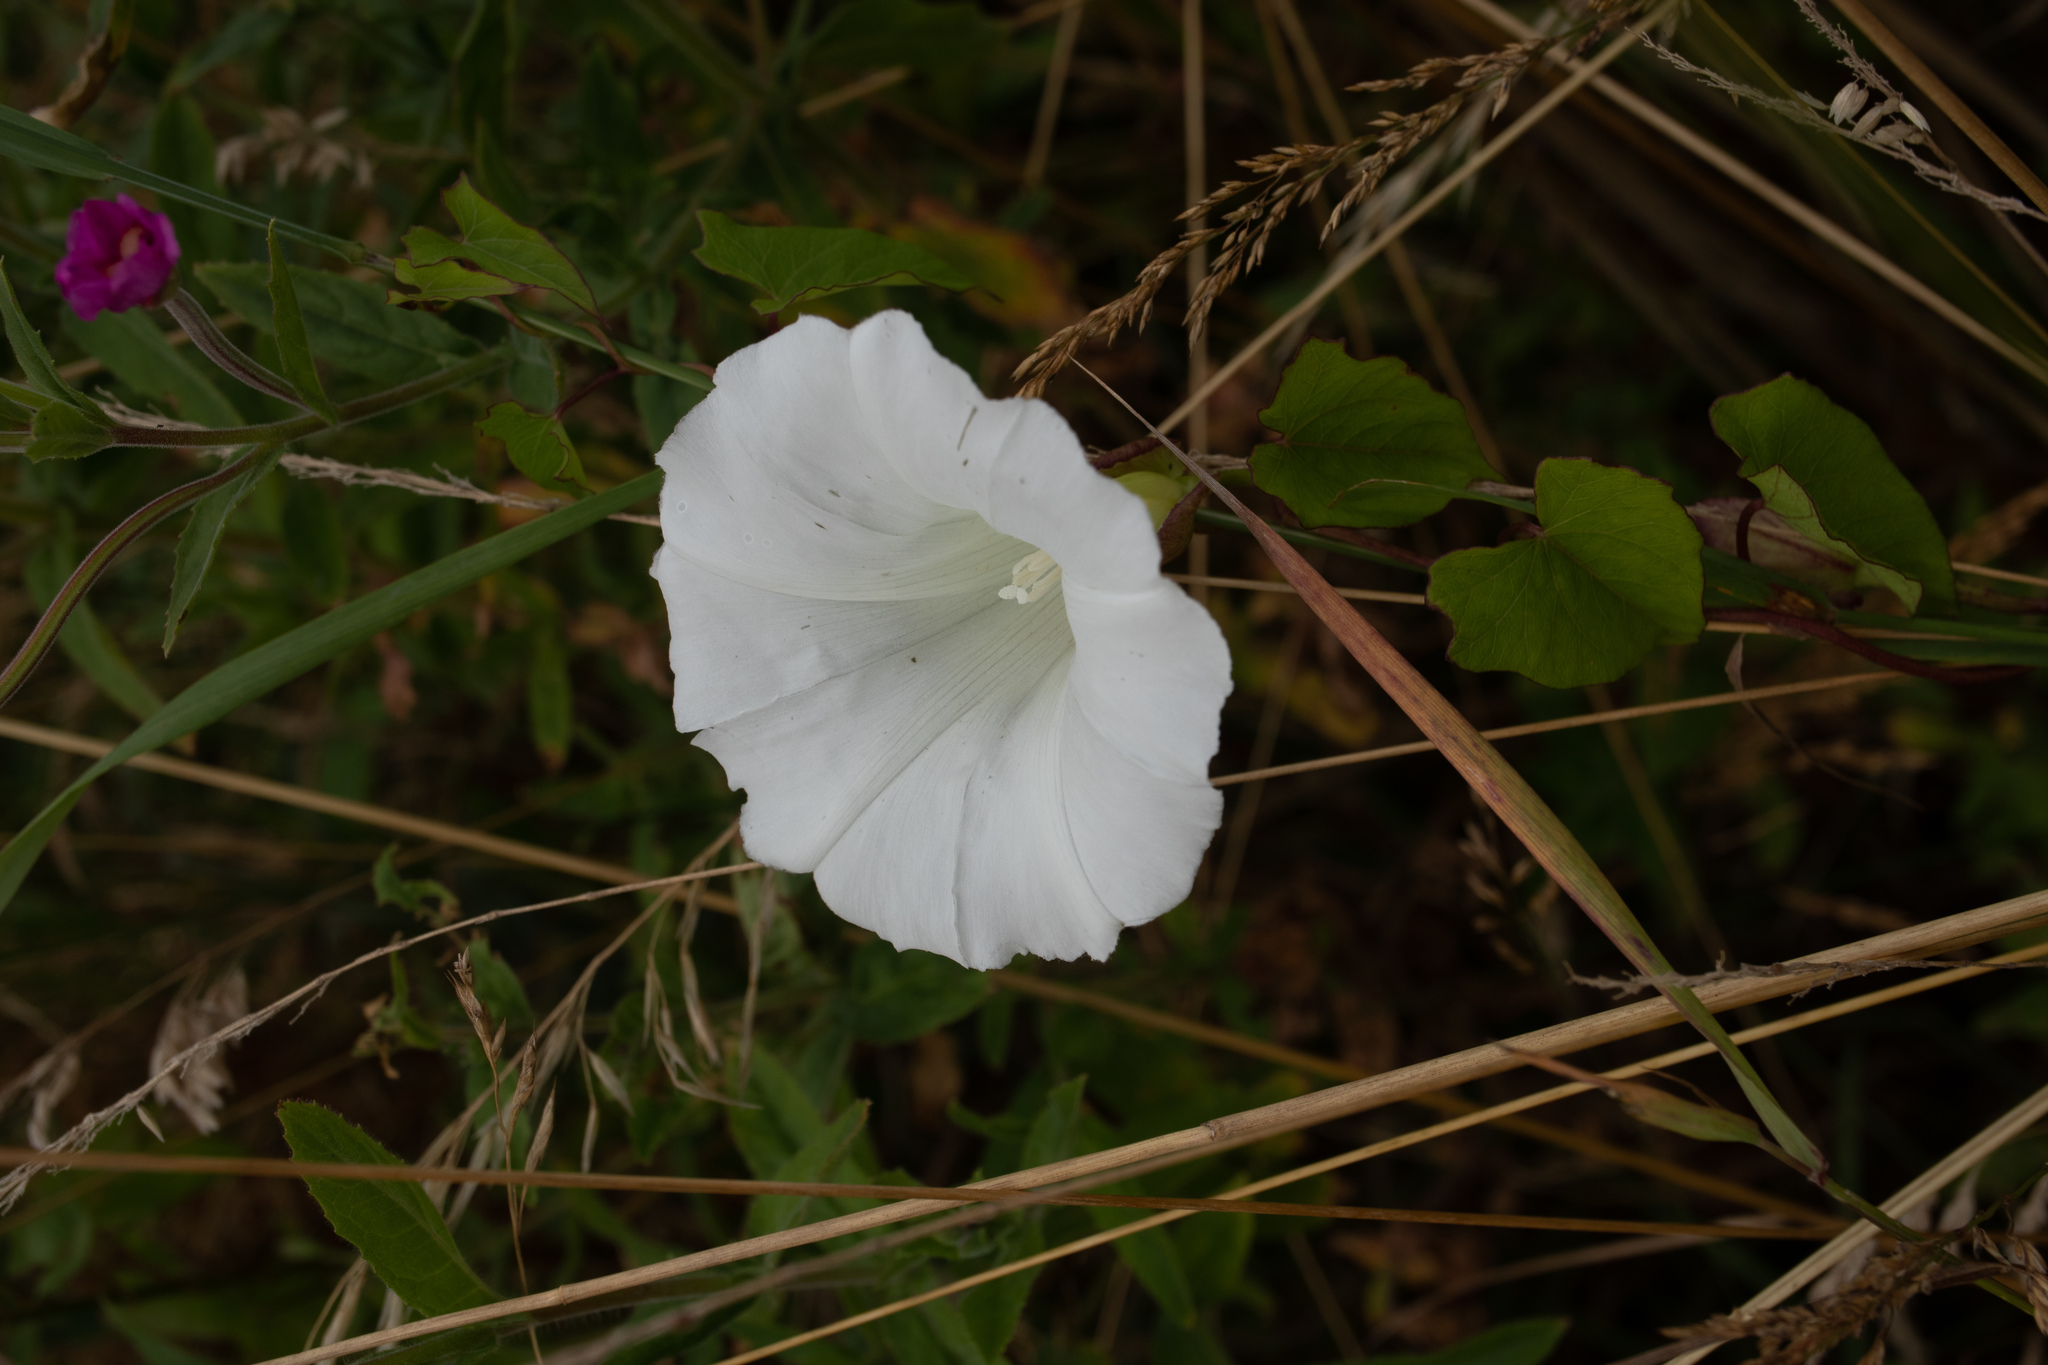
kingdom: Plantae
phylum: Tracheophyta
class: Magnoliopsida
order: Solanales
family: Convolvulaceae
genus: Calystegia
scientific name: Calystegia sepium
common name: Hedge bindweed
